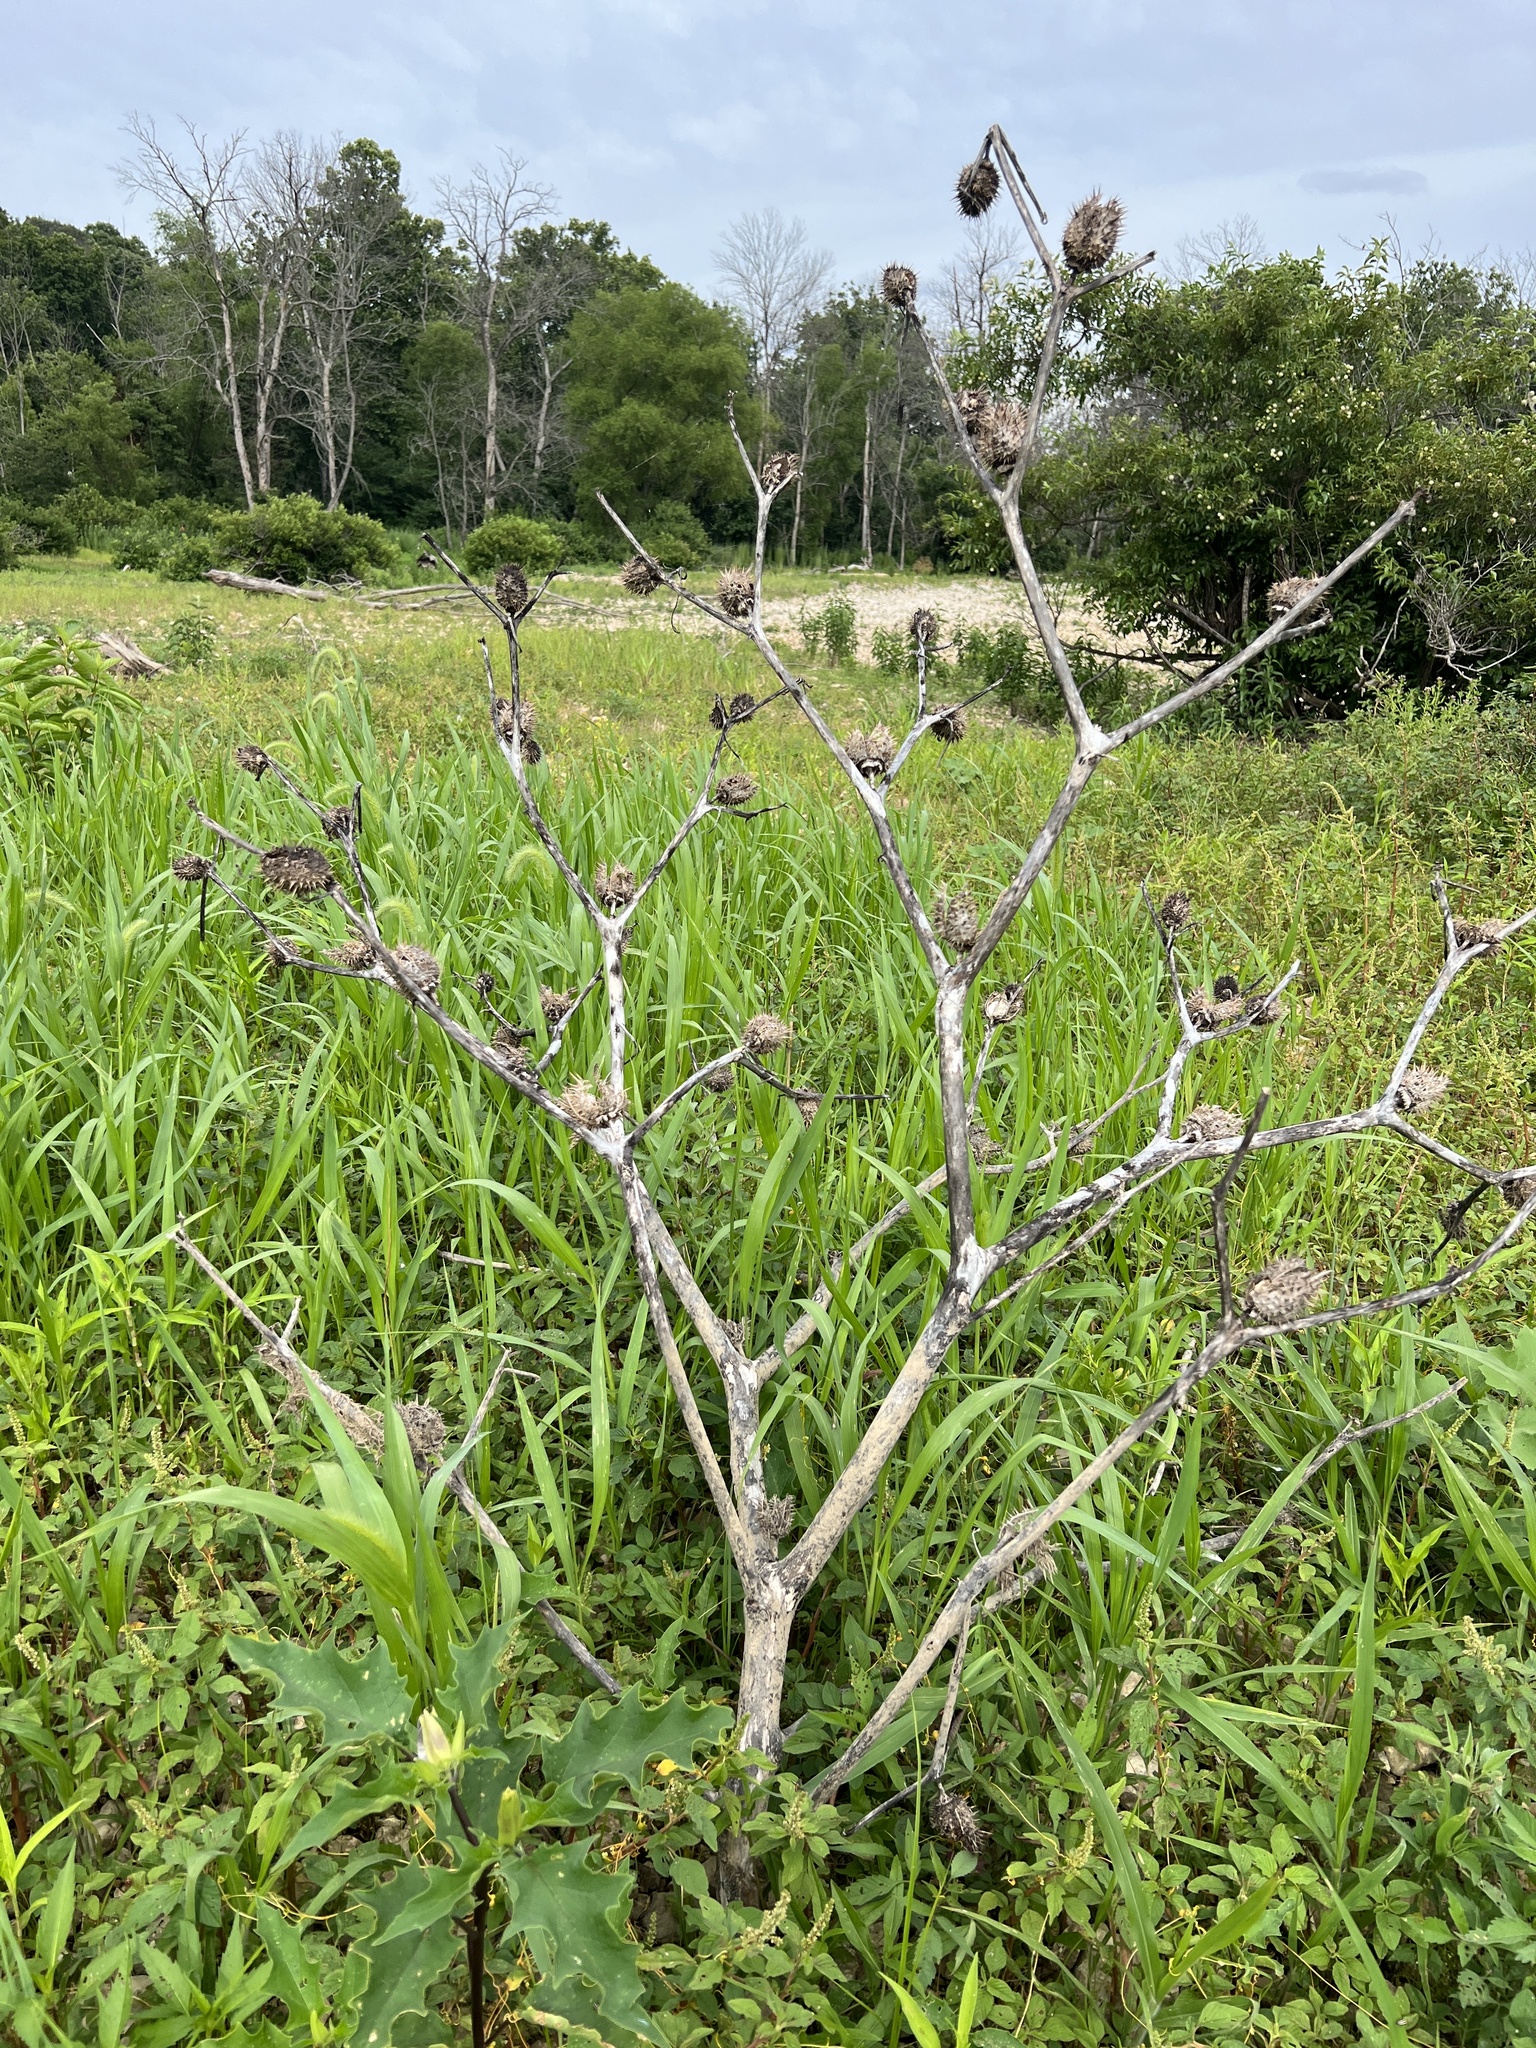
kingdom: Plantae
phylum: Tracheophyta
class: Magnoliopsida
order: Solanales
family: Solanaceae
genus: Datura
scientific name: Datura stramonium
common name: Thorn-apple
